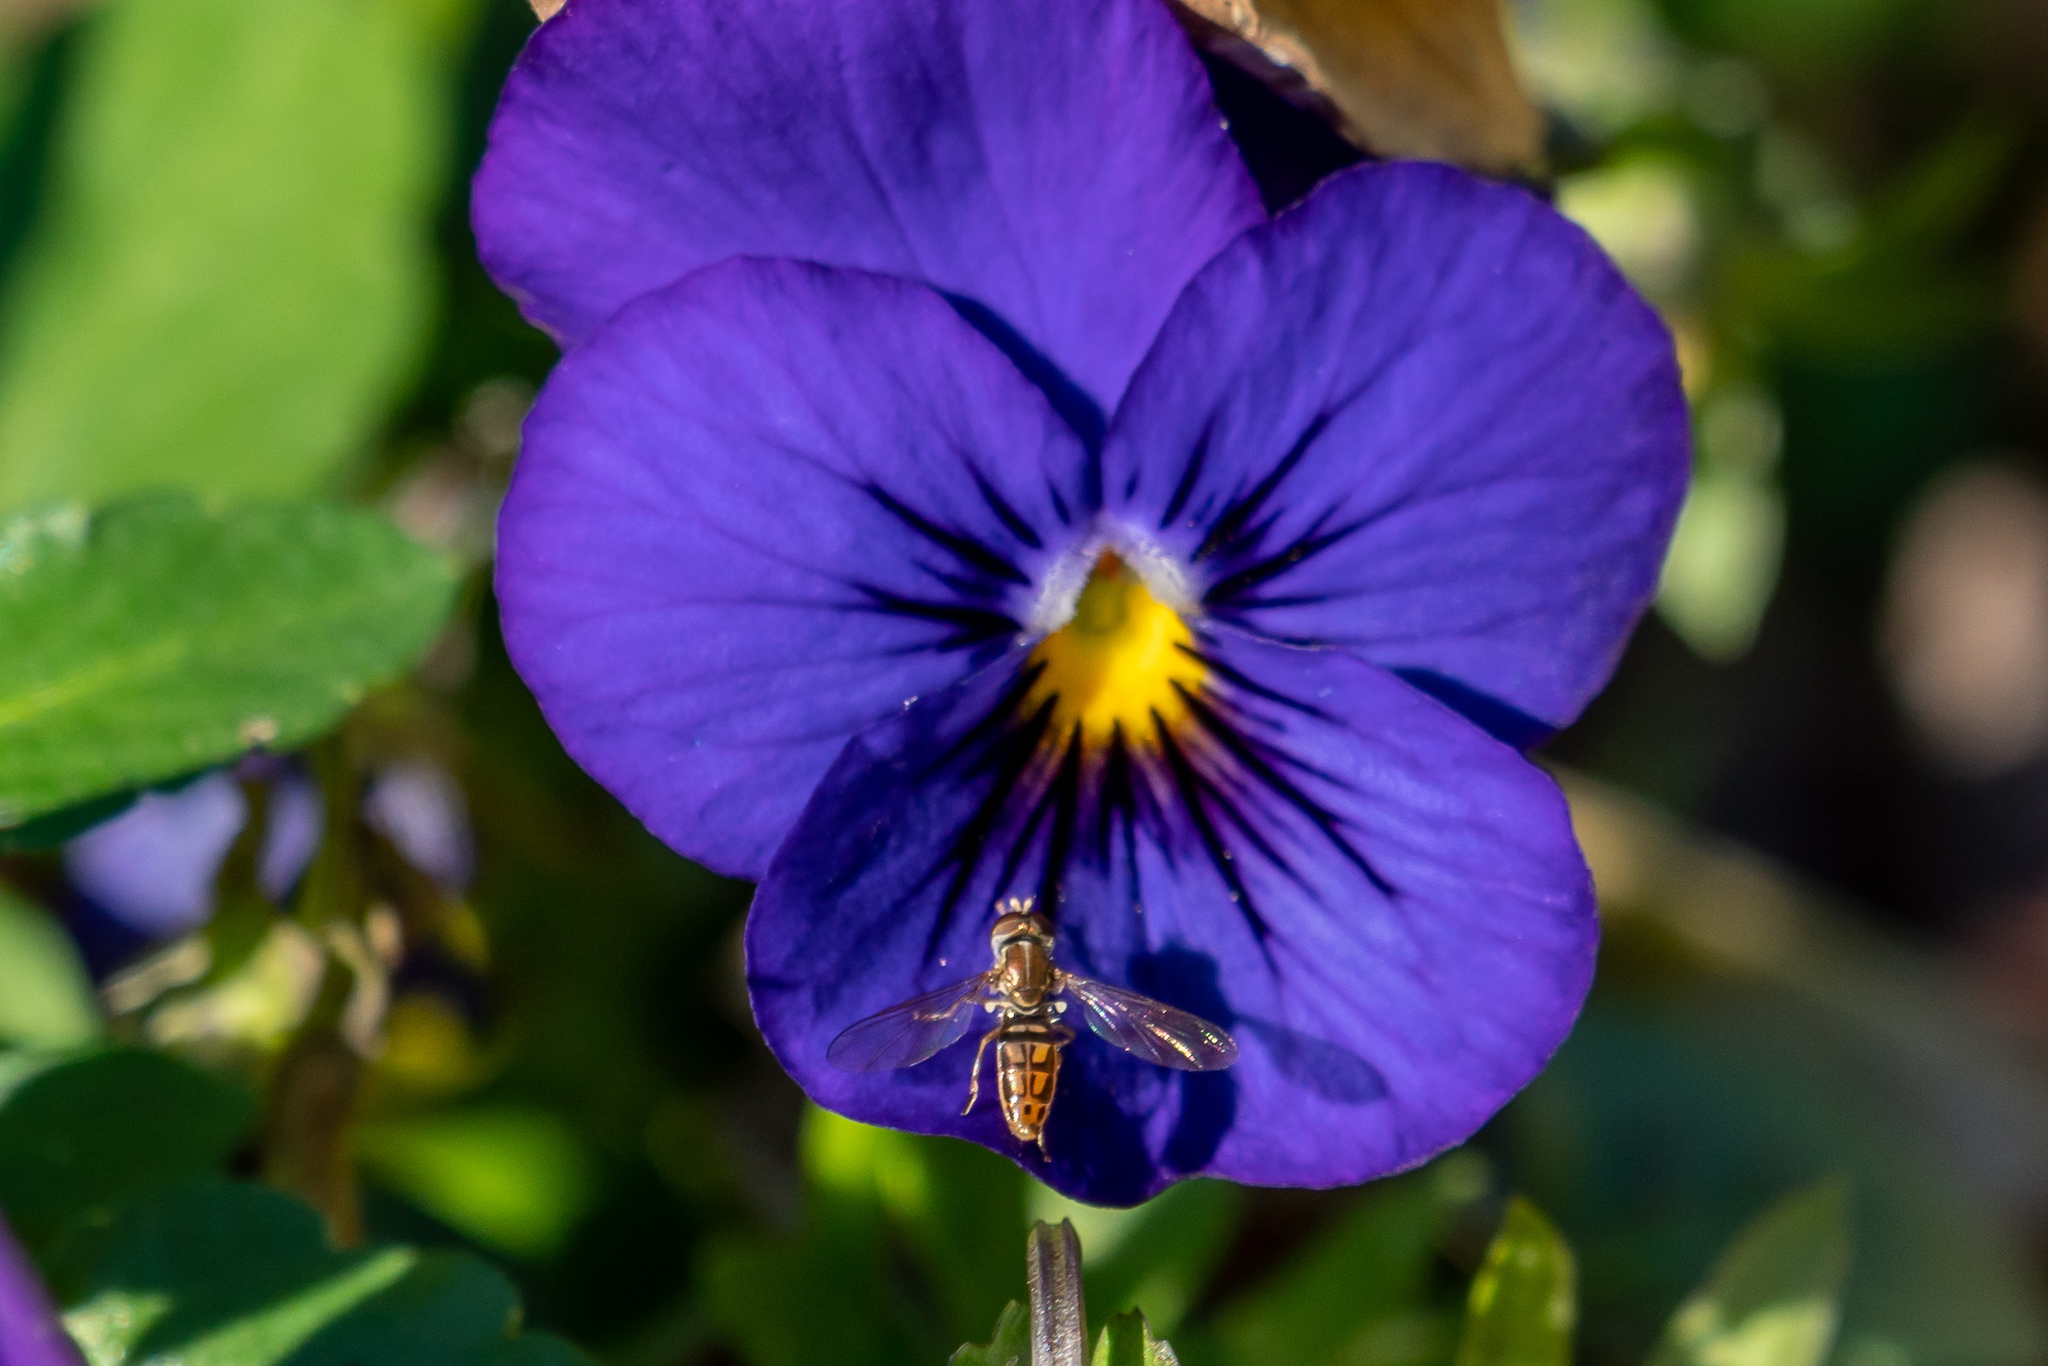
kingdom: Animalia
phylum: Arthropoda
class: Insecta
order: Diptera
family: Syrphidae
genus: Toxomerus
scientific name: Toxomerus marginatus
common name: Syrphid fly
